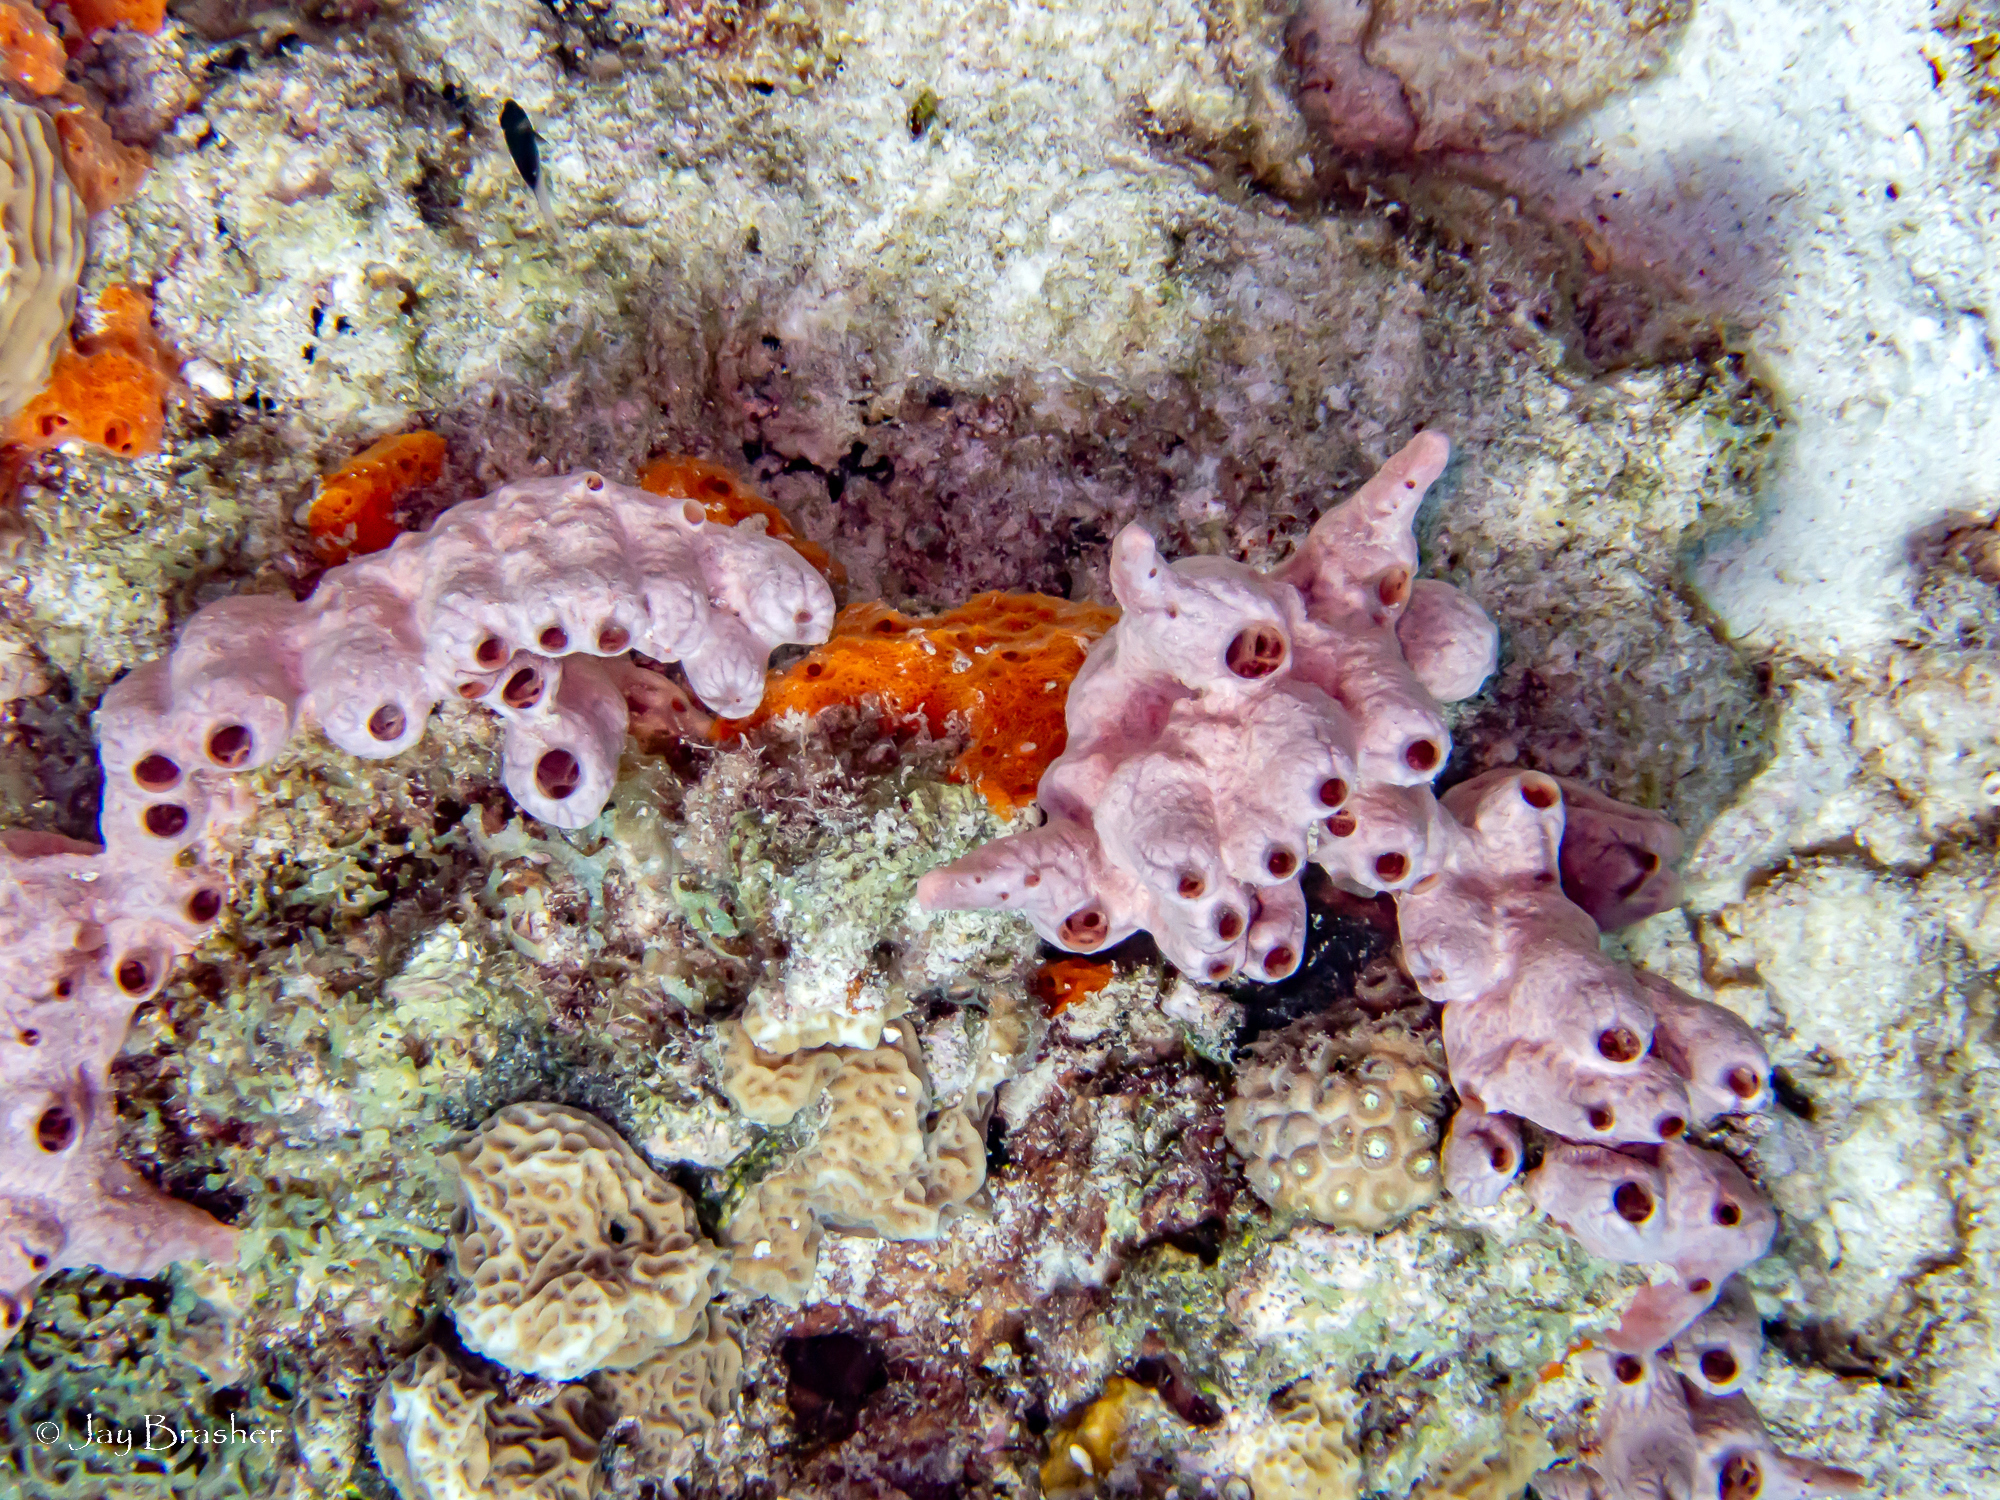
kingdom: Animalia
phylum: Cnidaria
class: Anthozoa
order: Scleractinia
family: Montastraeidae
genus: Montastraea
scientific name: Montastraea cavernosa
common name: Great star coral
